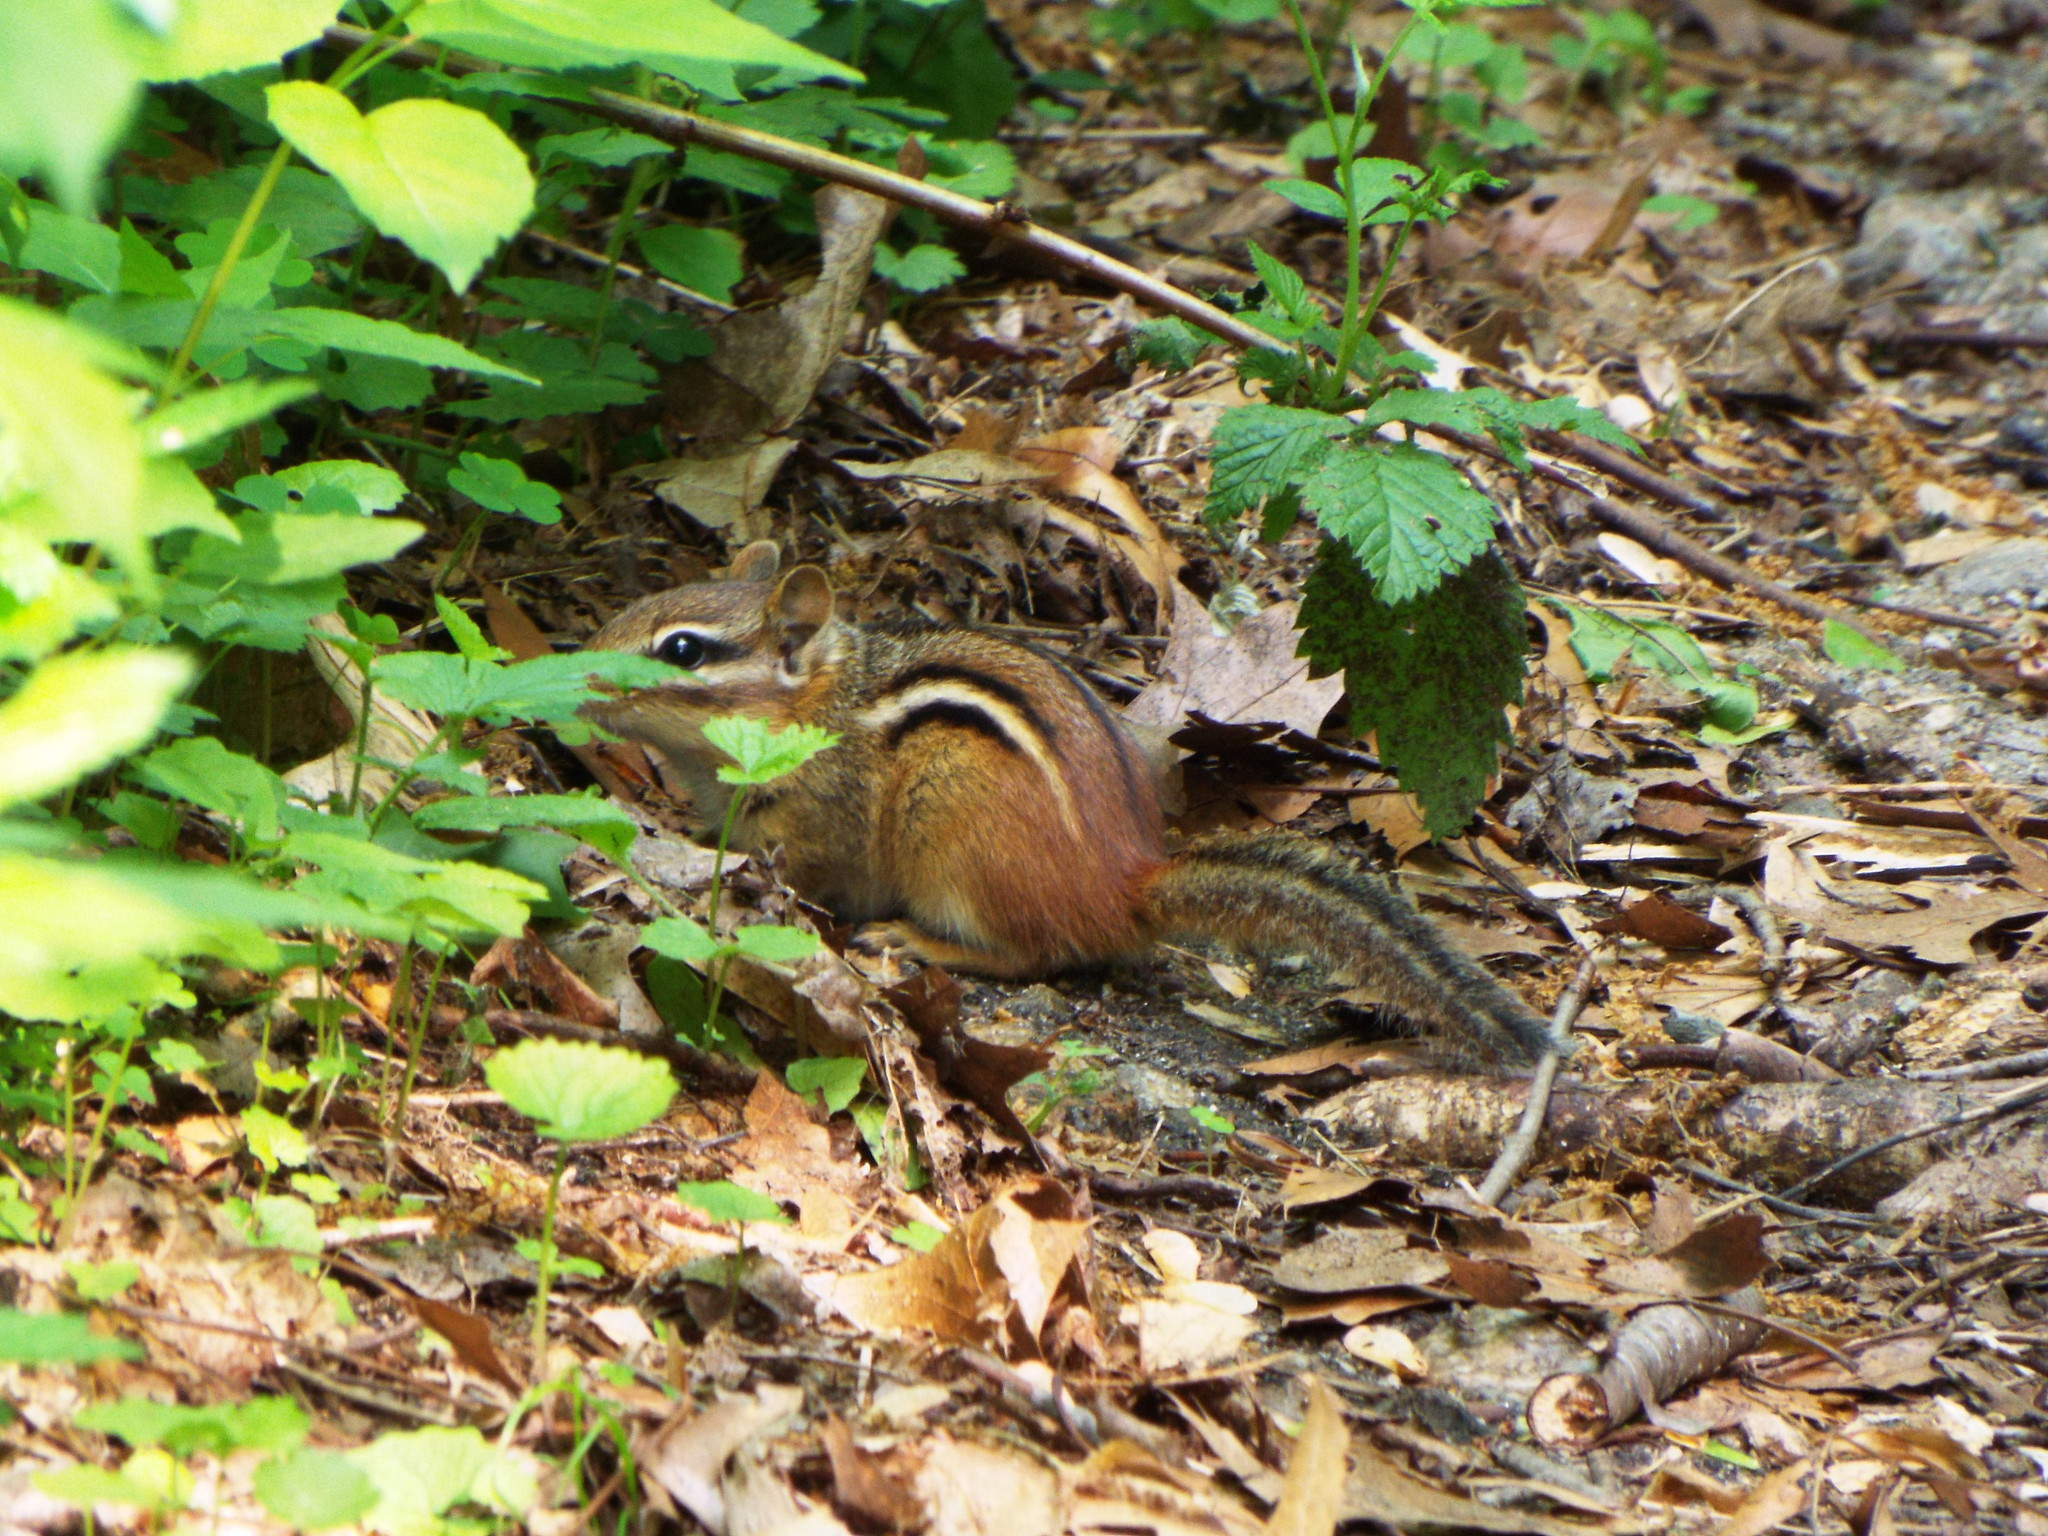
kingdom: Animalia
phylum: Chordata
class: Mammalia
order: Rodentia
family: Sciuridae
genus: Tamias
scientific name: Tamias striatus
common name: Eastern chipmunk
